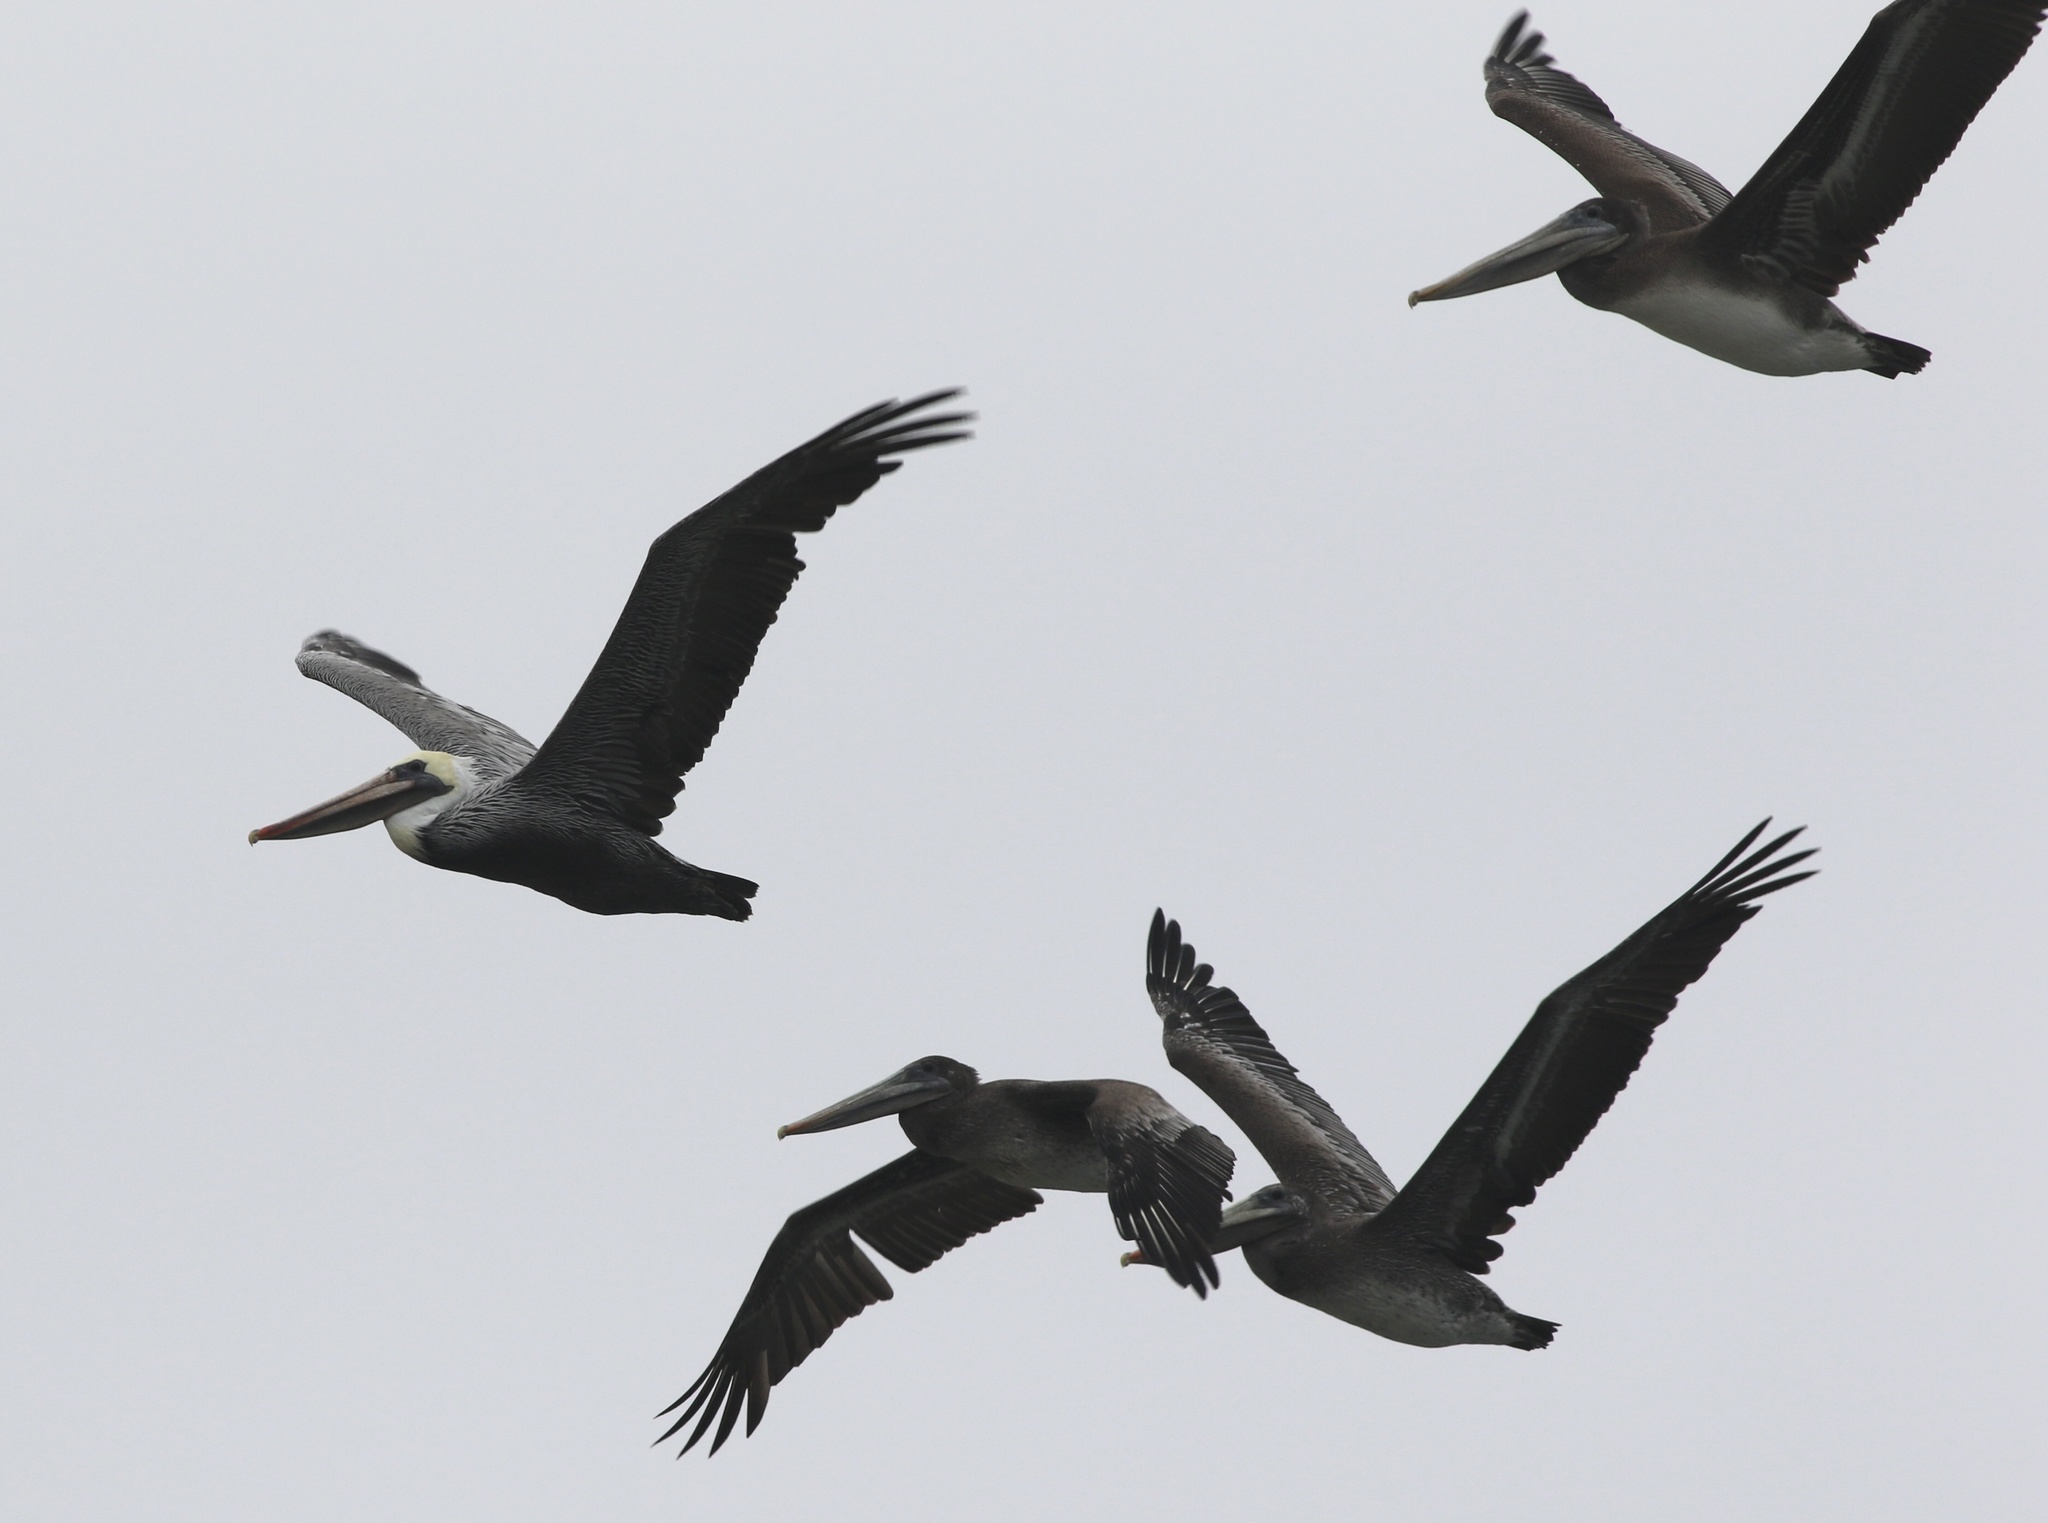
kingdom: Animalia
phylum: Chordata
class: Aves
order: Pelecaniformes
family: Pelecanidae
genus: Pelecanus
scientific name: Pelecanus occidentalis
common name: Brown pelican
